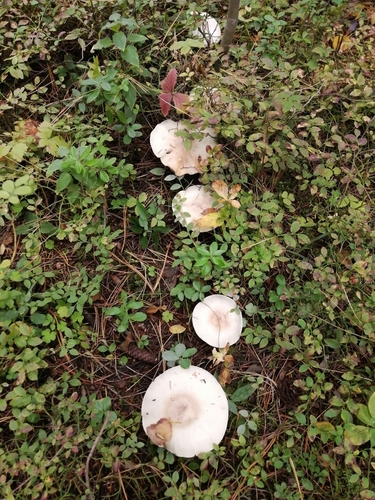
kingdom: Fungi
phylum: Basidiomycota
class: Agaricomycetes
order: Agaricales
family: Tricholomataceae
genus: Clitocybe
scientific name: Clitocybe nebularis
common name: Clouded agaric
